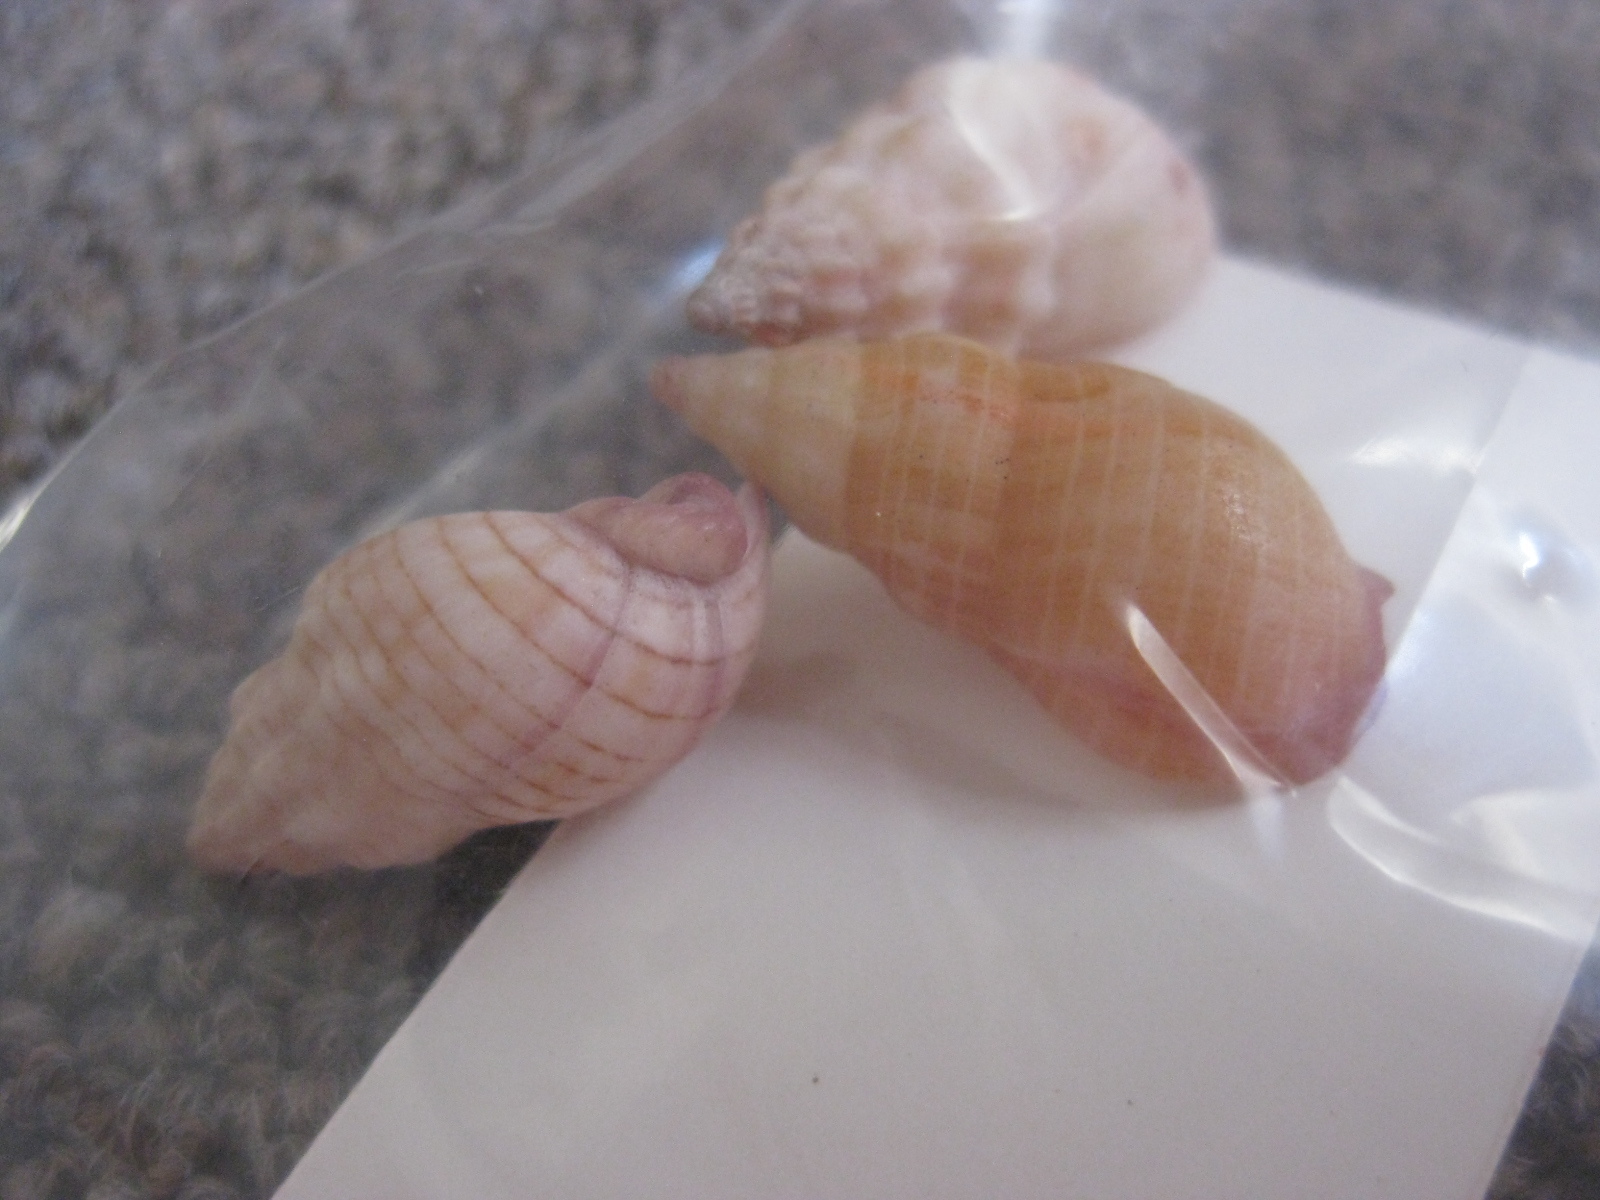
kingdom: Animalia
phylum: Mollusca
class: Gastropoda
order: Neogastropoda
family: Cominellidae
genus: Cominella
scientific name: Cominella quoyana
